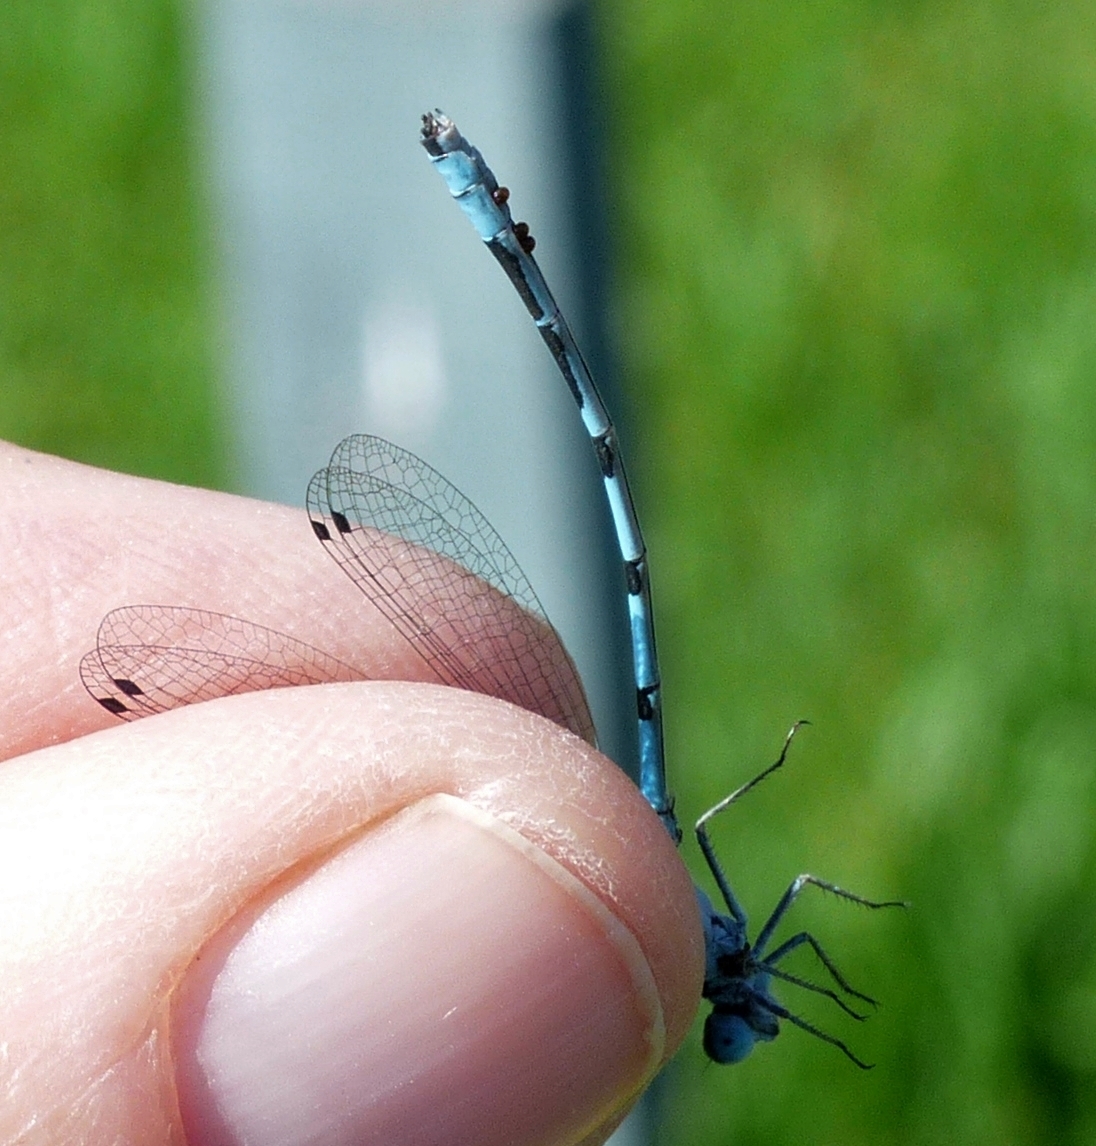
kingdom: Animalia
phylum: Arthropoda
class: Insecta
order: Odonata
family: Coenagrionidae
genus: Enallagma
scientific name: Enallagma ebrium
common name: Marsh bluet
